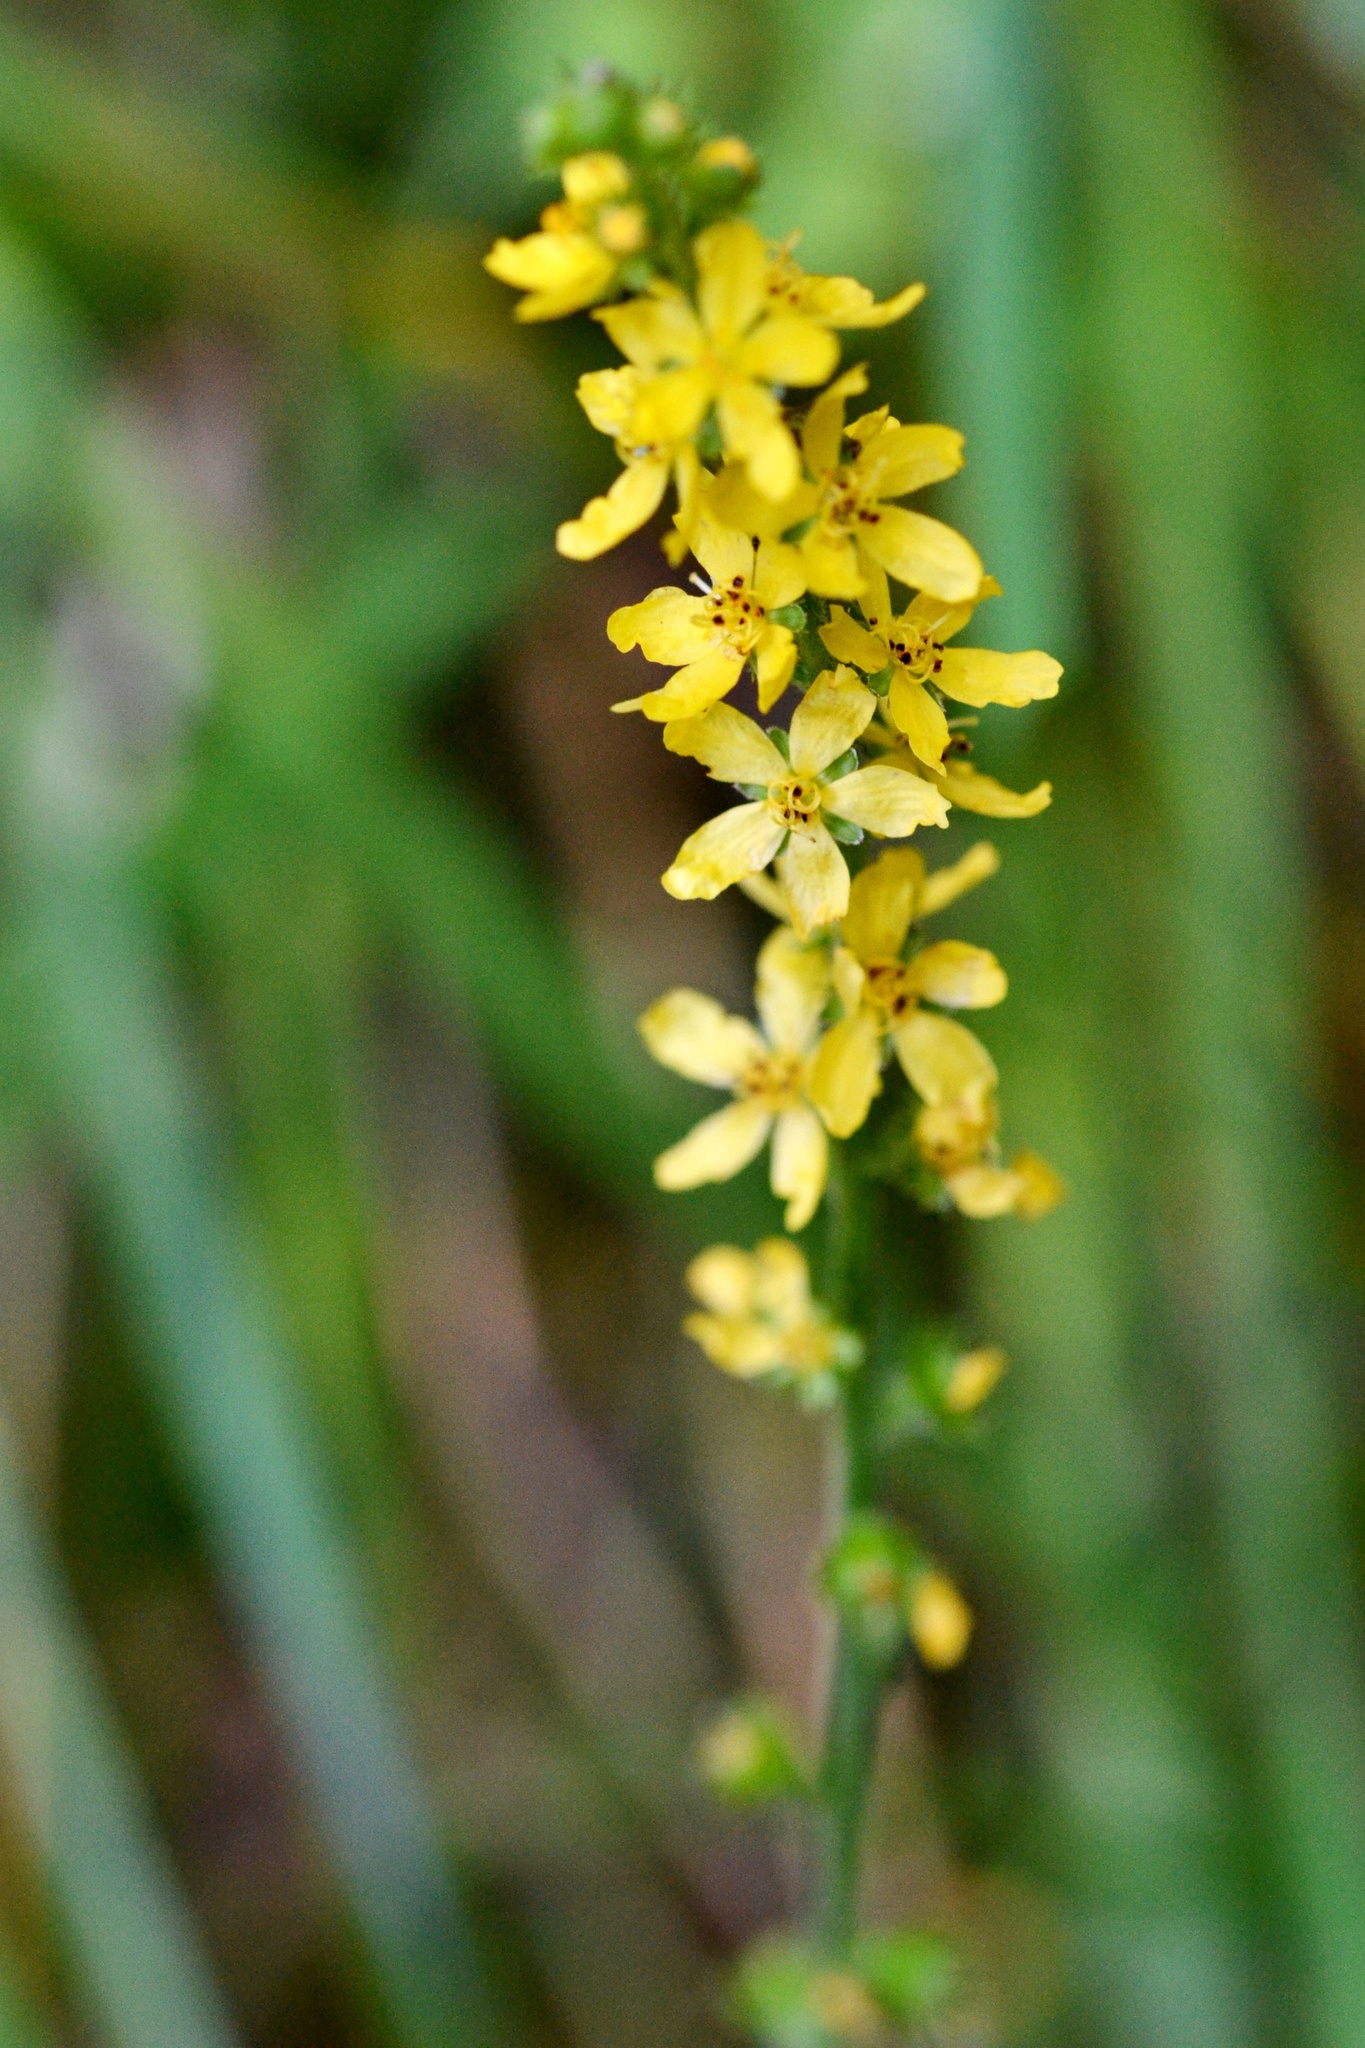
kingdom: Plantae
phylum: Tracheophyta
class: Magnoliopsida
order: Rosales
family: Rosaceae
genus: Agrimonia
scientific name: Agrimonia eupatoria
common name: Agrimony
